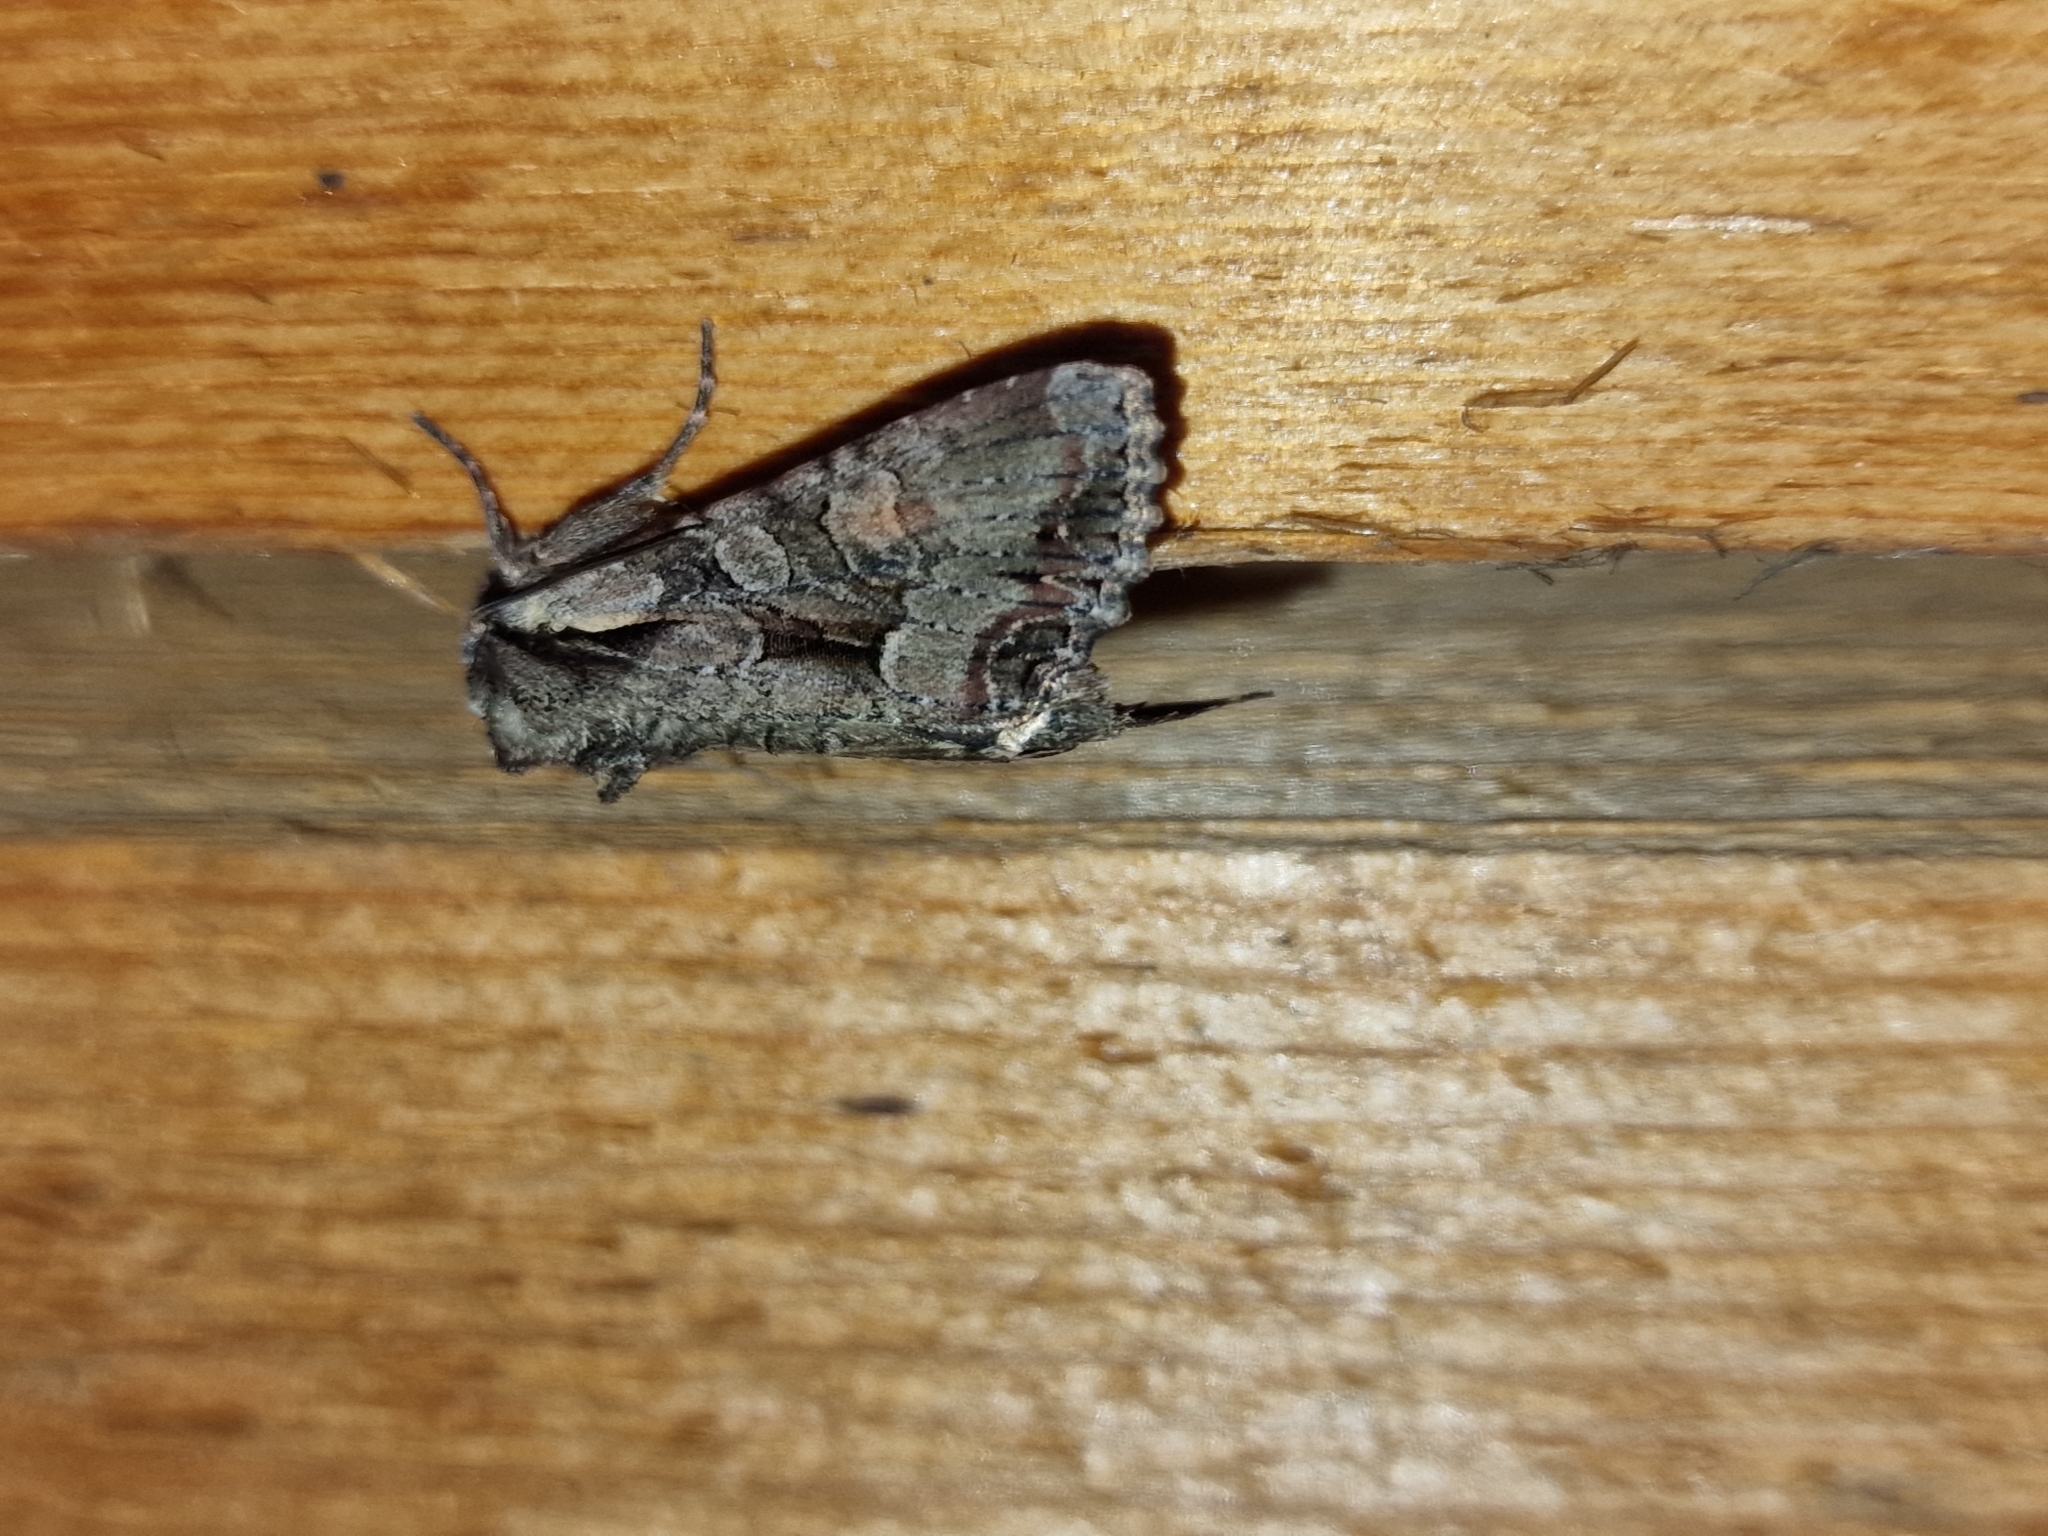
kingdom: Animalia
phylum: Arthropoda
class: Insecta
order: Lepidoptera
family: Noctuidae
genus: Lacanobia
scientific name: Lacanobia thalassina
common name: Pale-shouldered brocade
